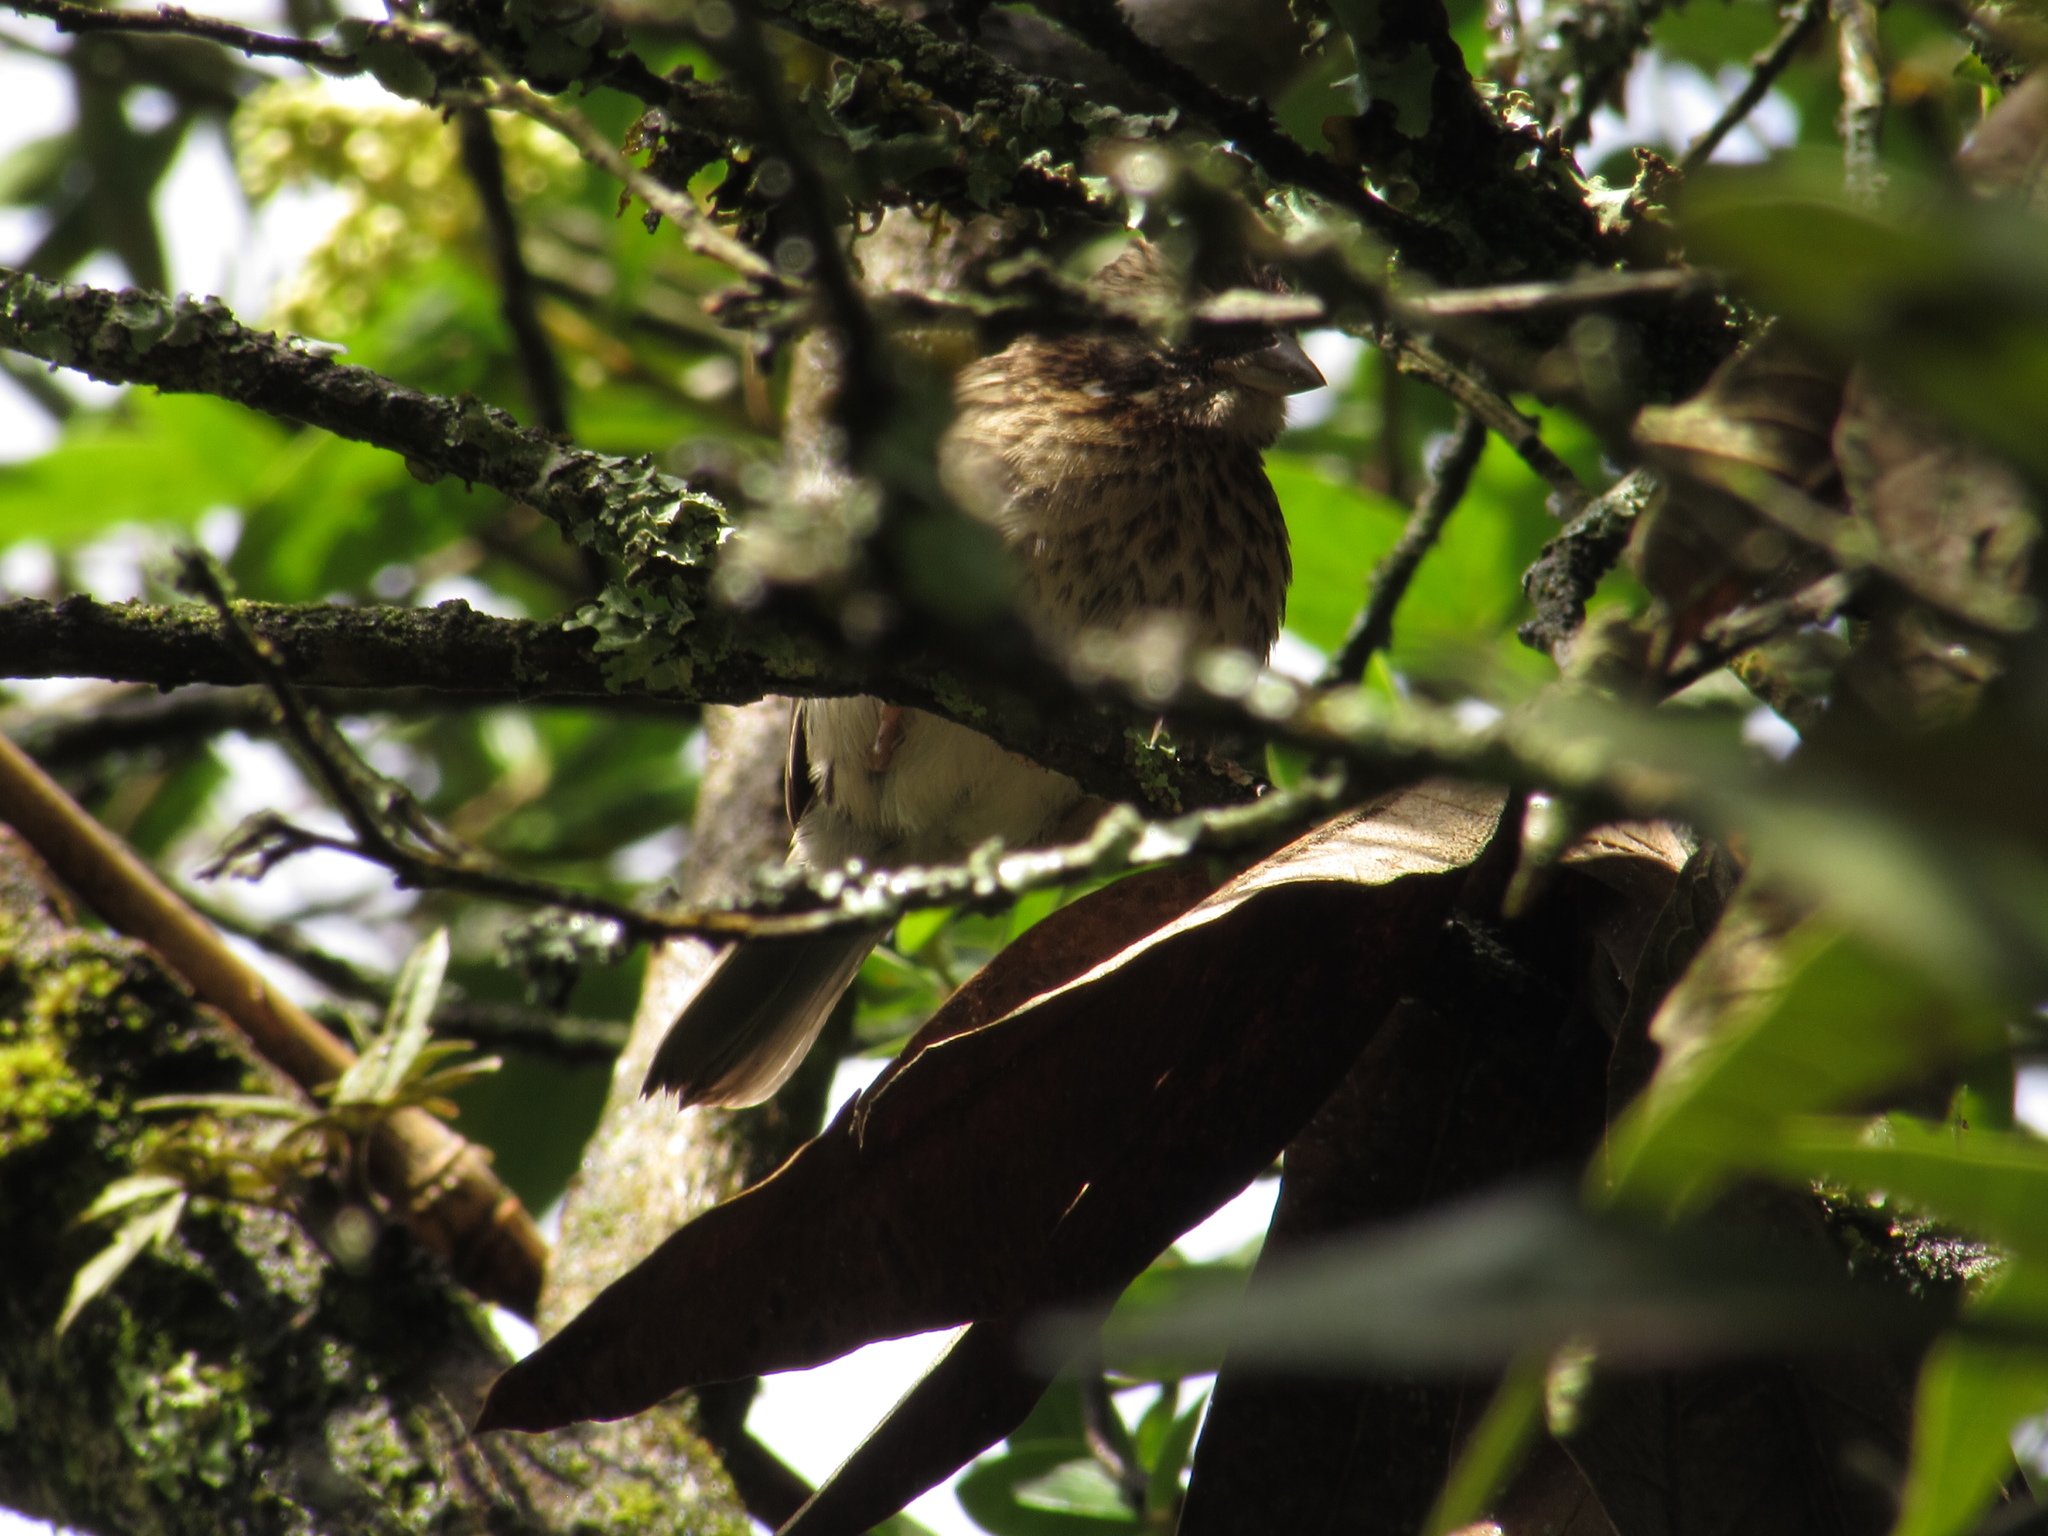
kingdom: Animalia
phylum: Chordata
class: Aves
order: Passeriformes
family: Passerellidae
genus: Zonotrichia
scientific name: Zonotrichia capensis
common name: Rufous-collared sparrow
